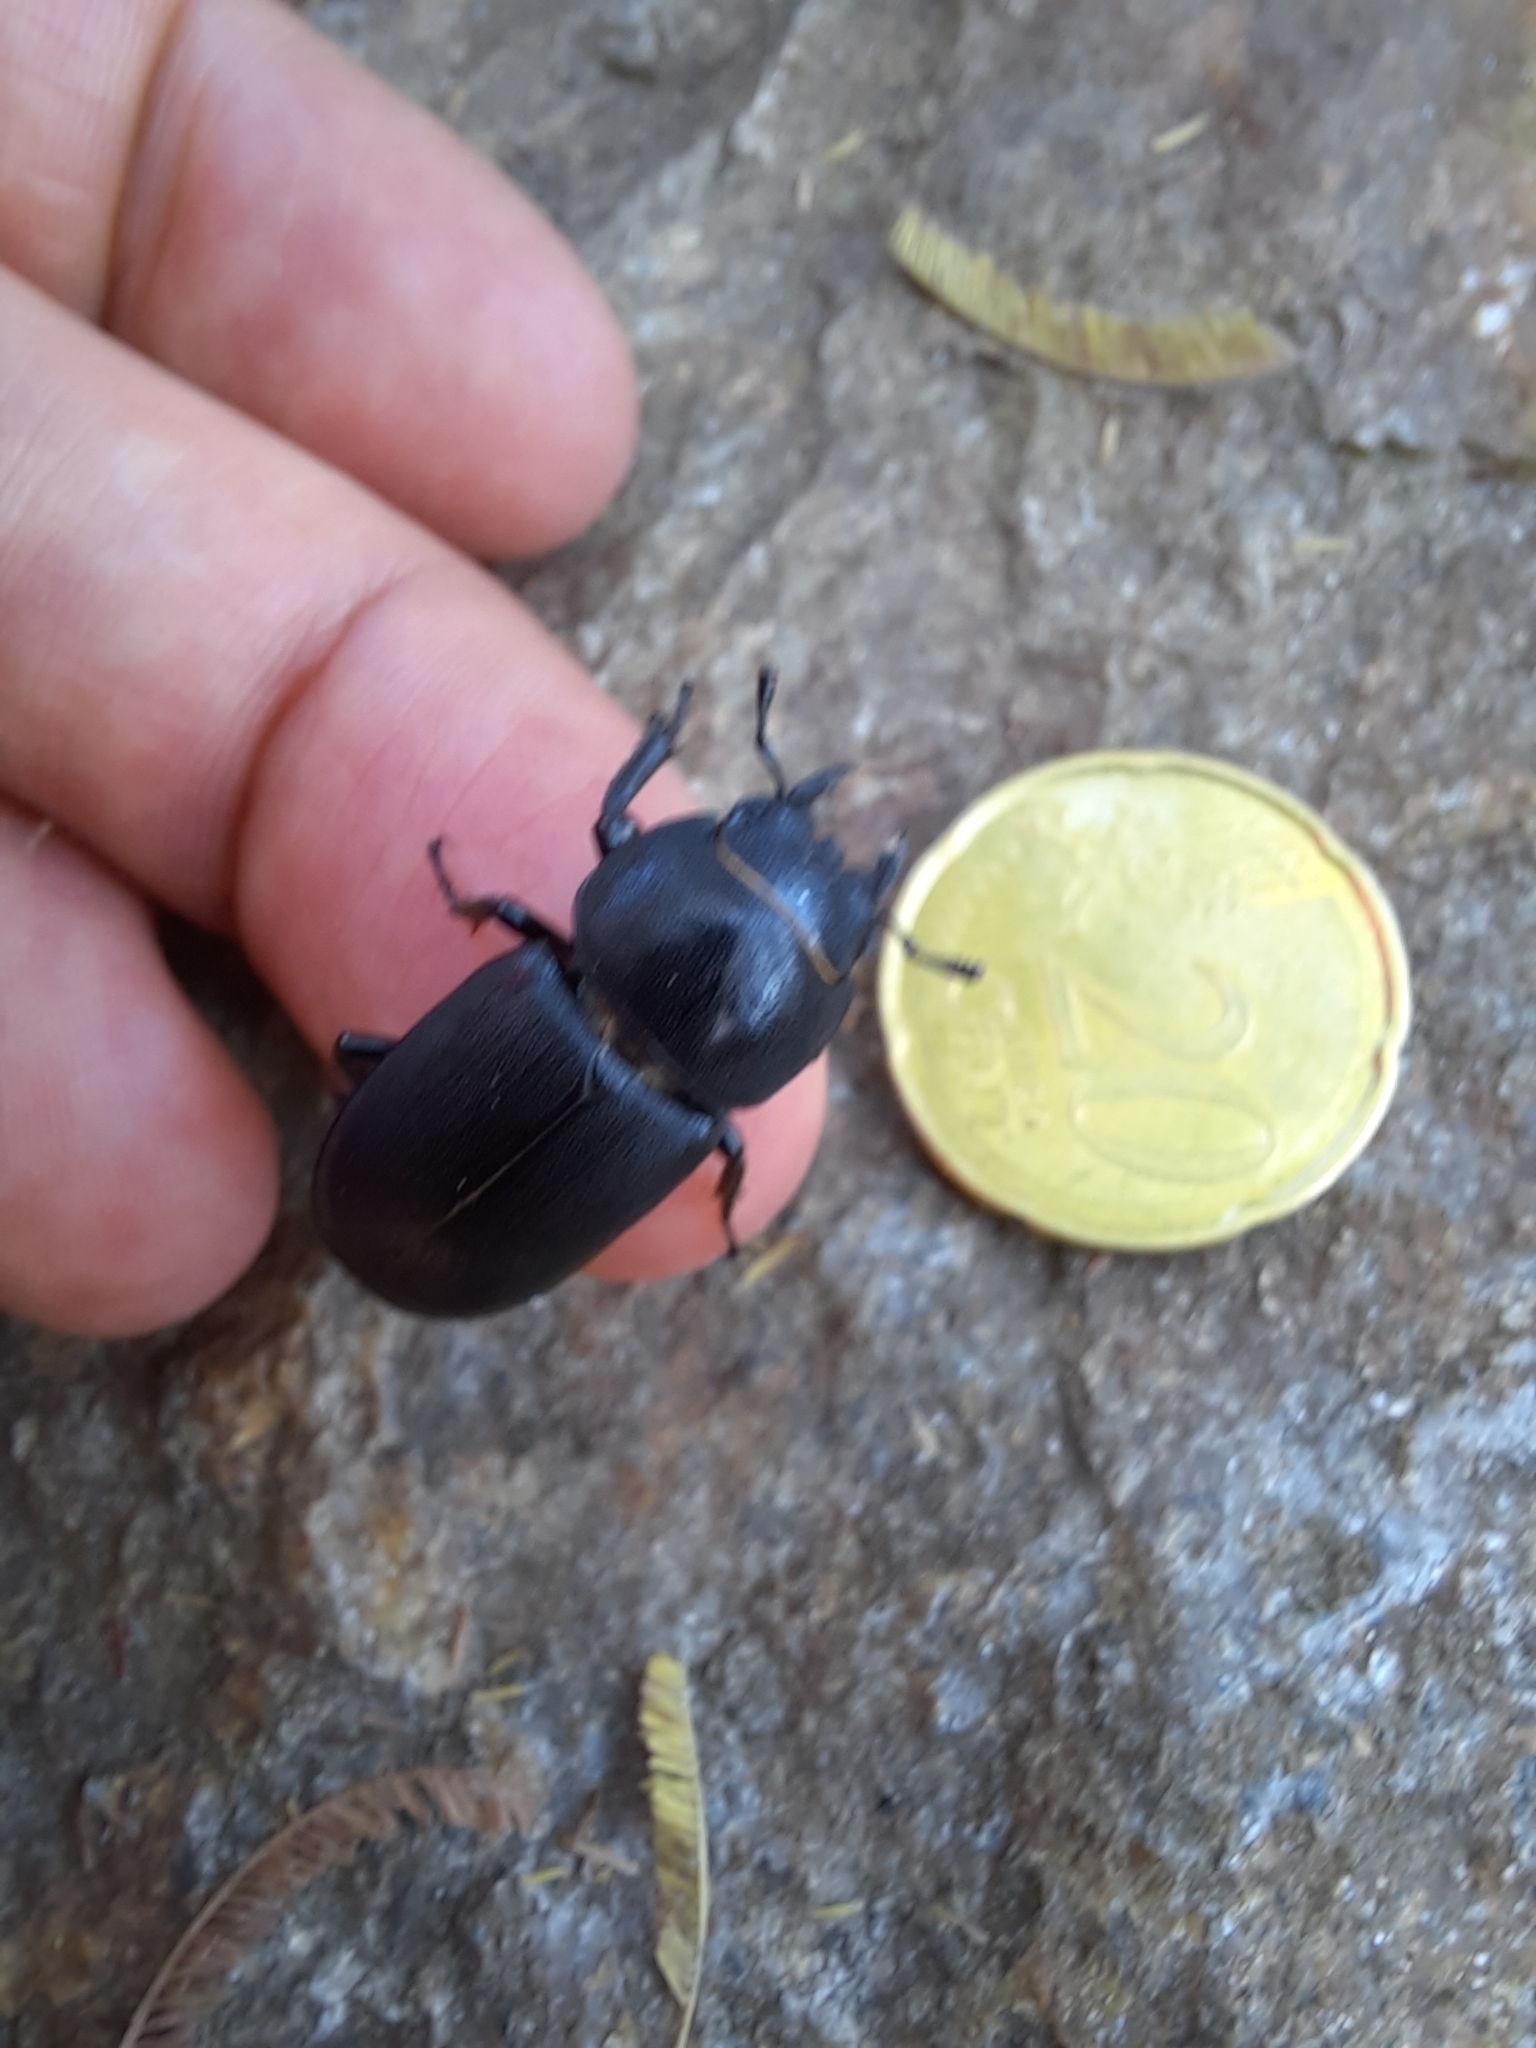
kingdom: Animalia
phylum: Arthropoda
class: Insecta
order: Coleoptera
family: Lucanidae
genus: Dorcus
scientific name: Dorcus parallelipipedus
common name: Lesser stag beetle
